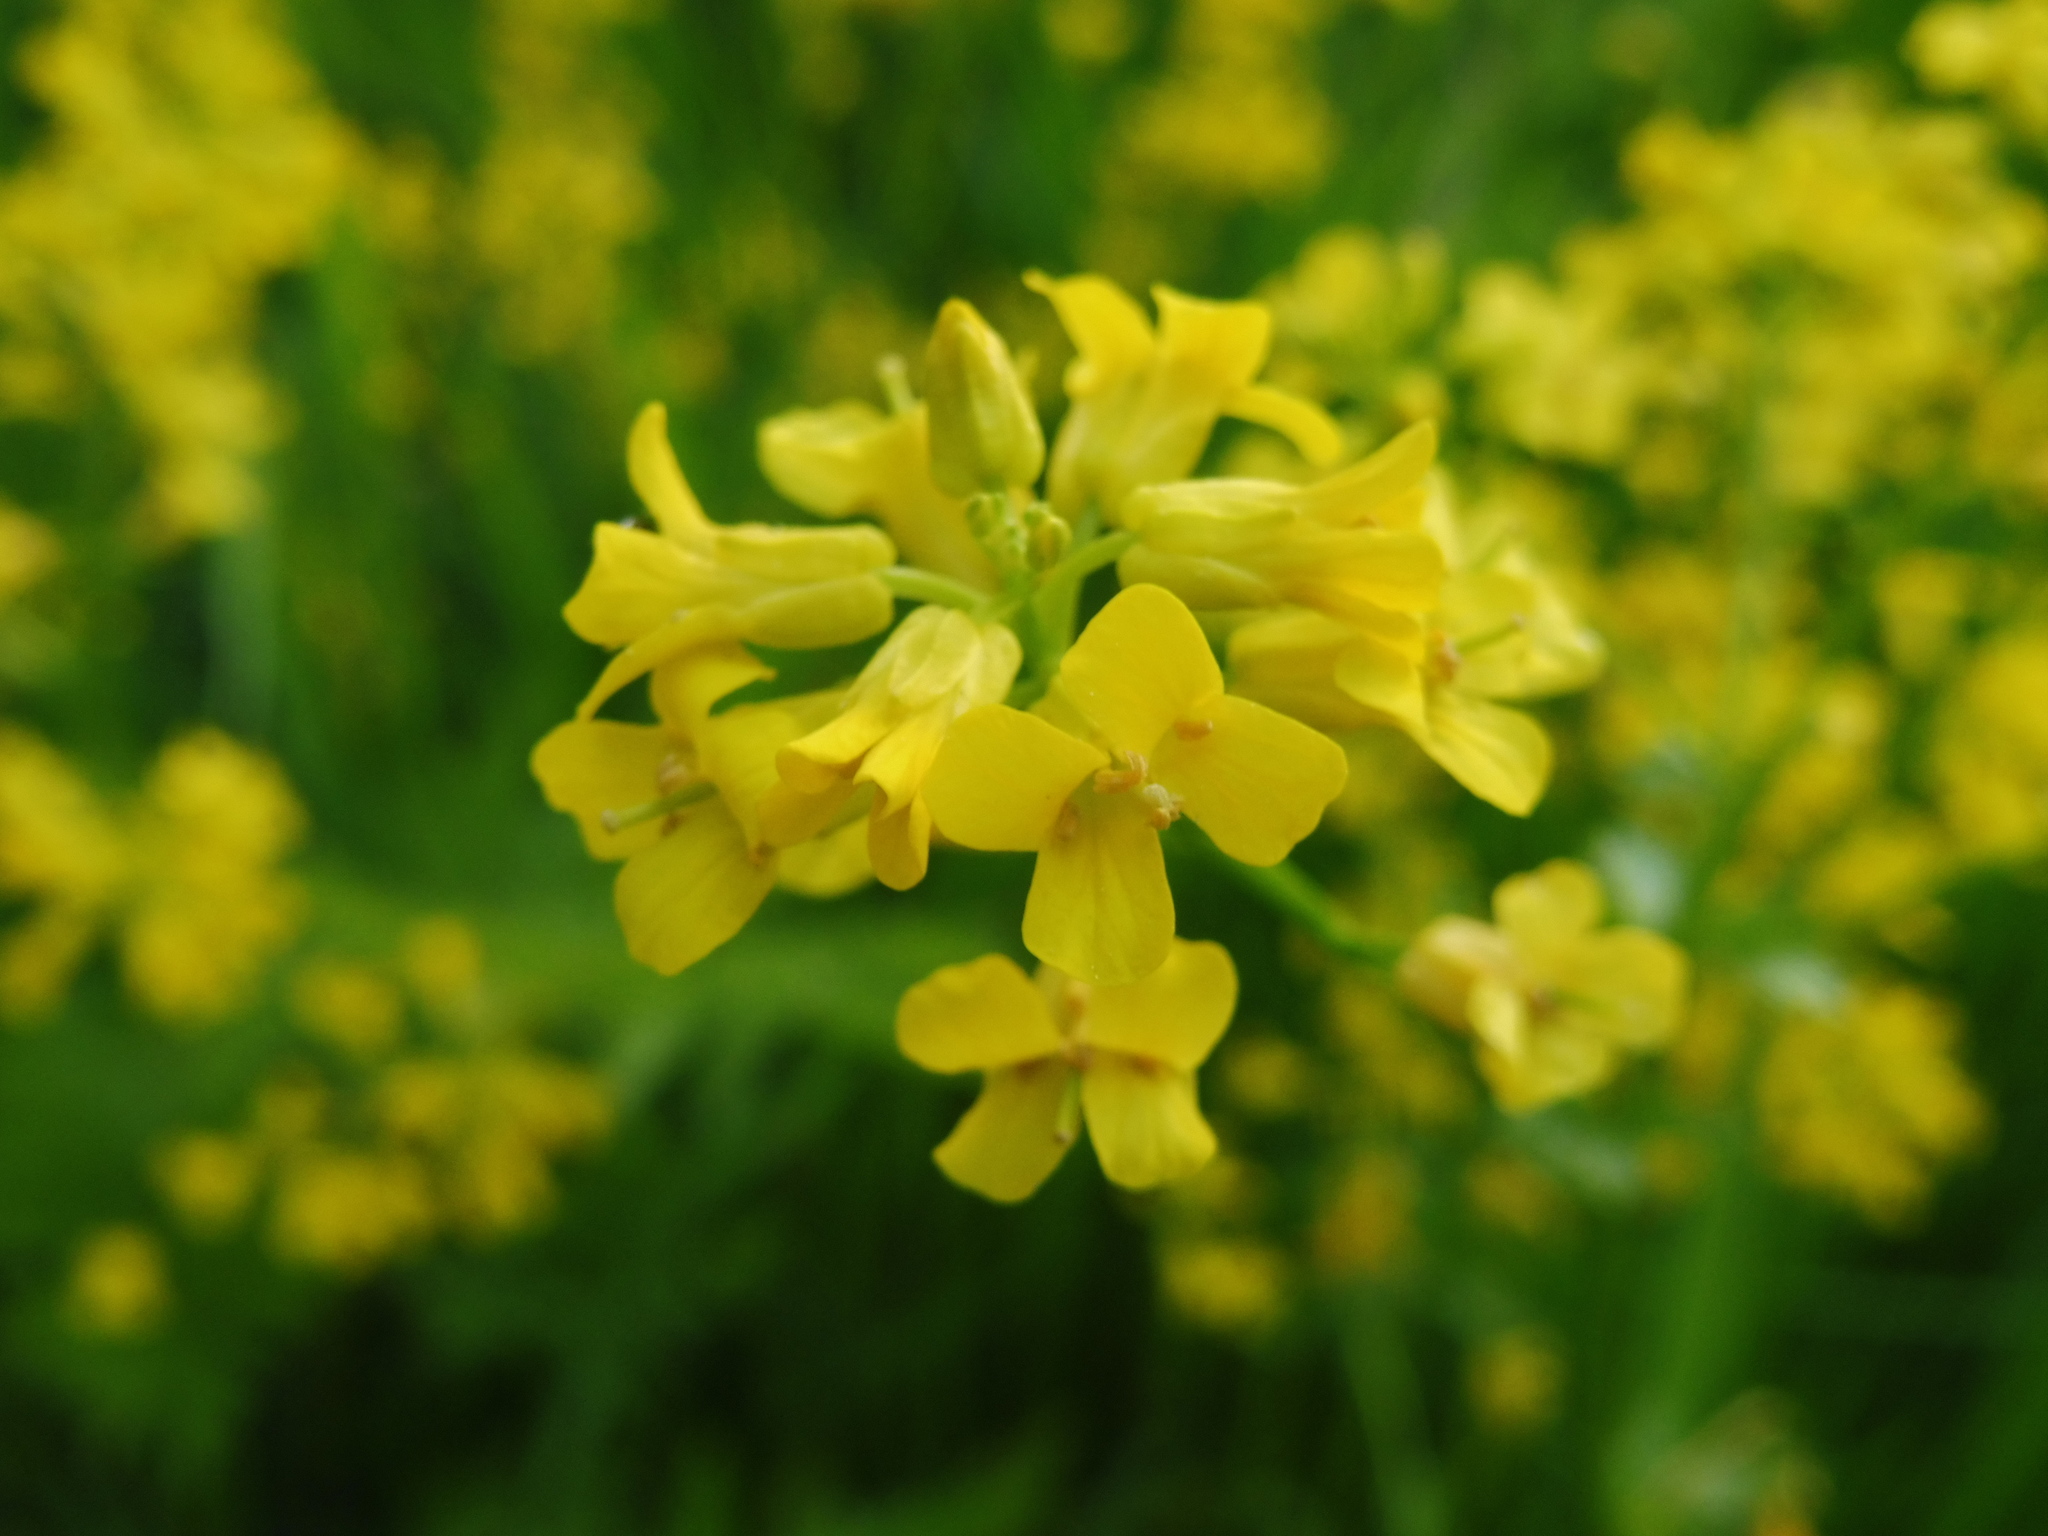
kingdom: Plantae
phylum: Tracheophyta
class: Magnoliopsida
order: Brassicales
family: Brassicaceae
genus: Barbarea
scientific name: Barbarea vulgaris
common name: Cressy-greens
